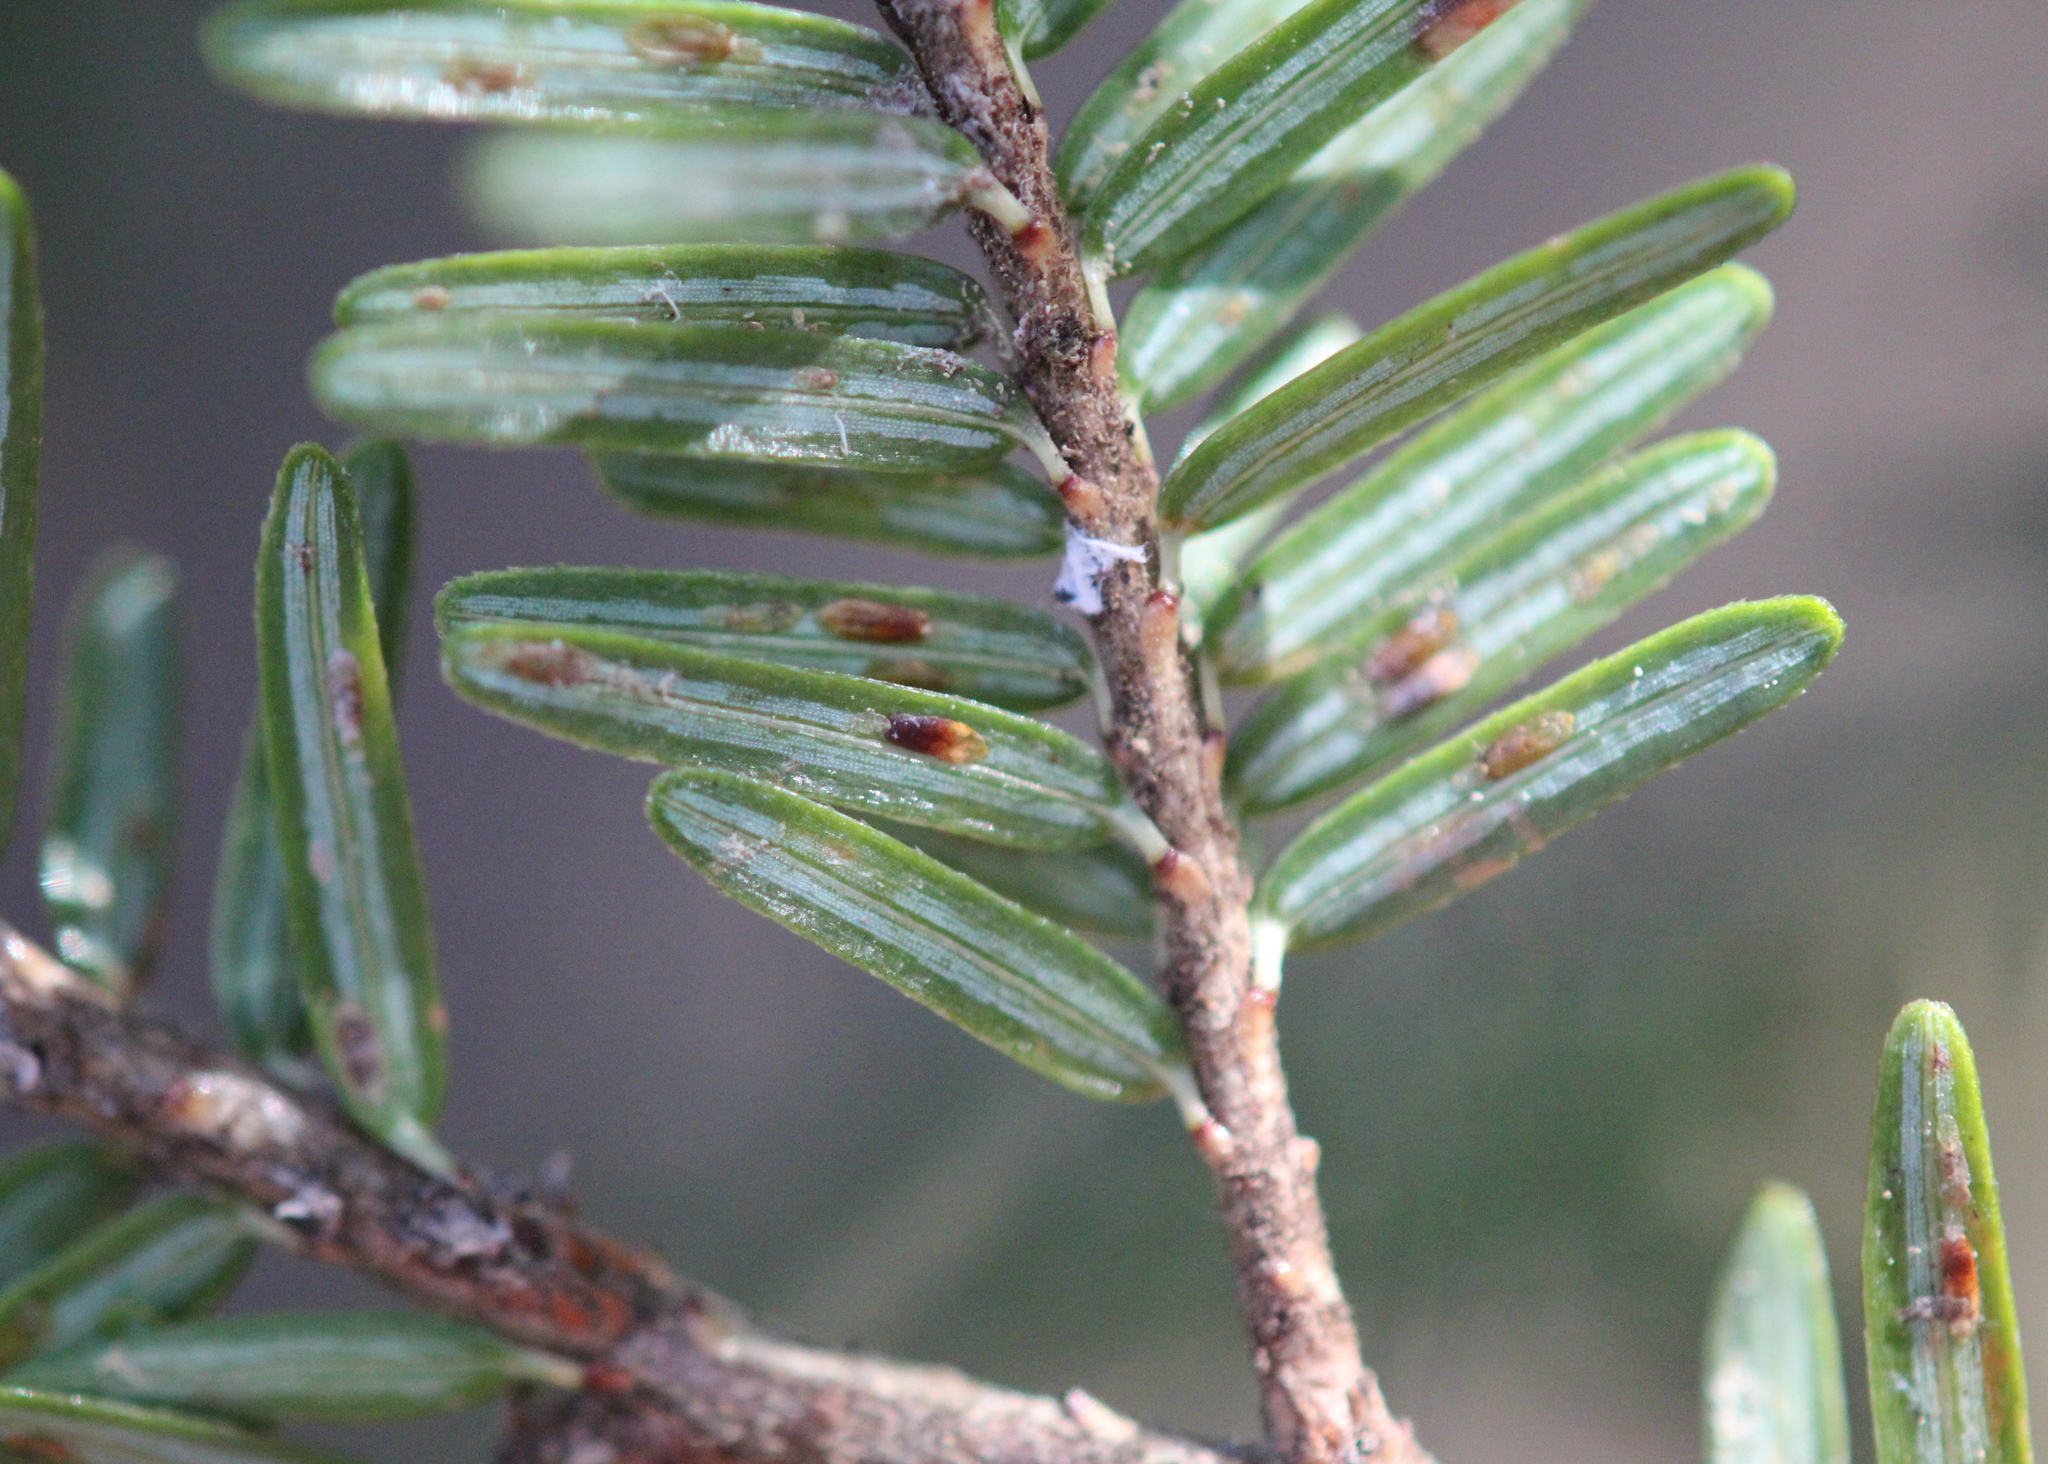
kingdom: Animalia
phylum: Arthropoda
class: Insecta
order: Hemiptera
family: Diaspididae
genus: Fiorinia
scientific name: Fiorinia externa
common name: Elongate hemlock scale
